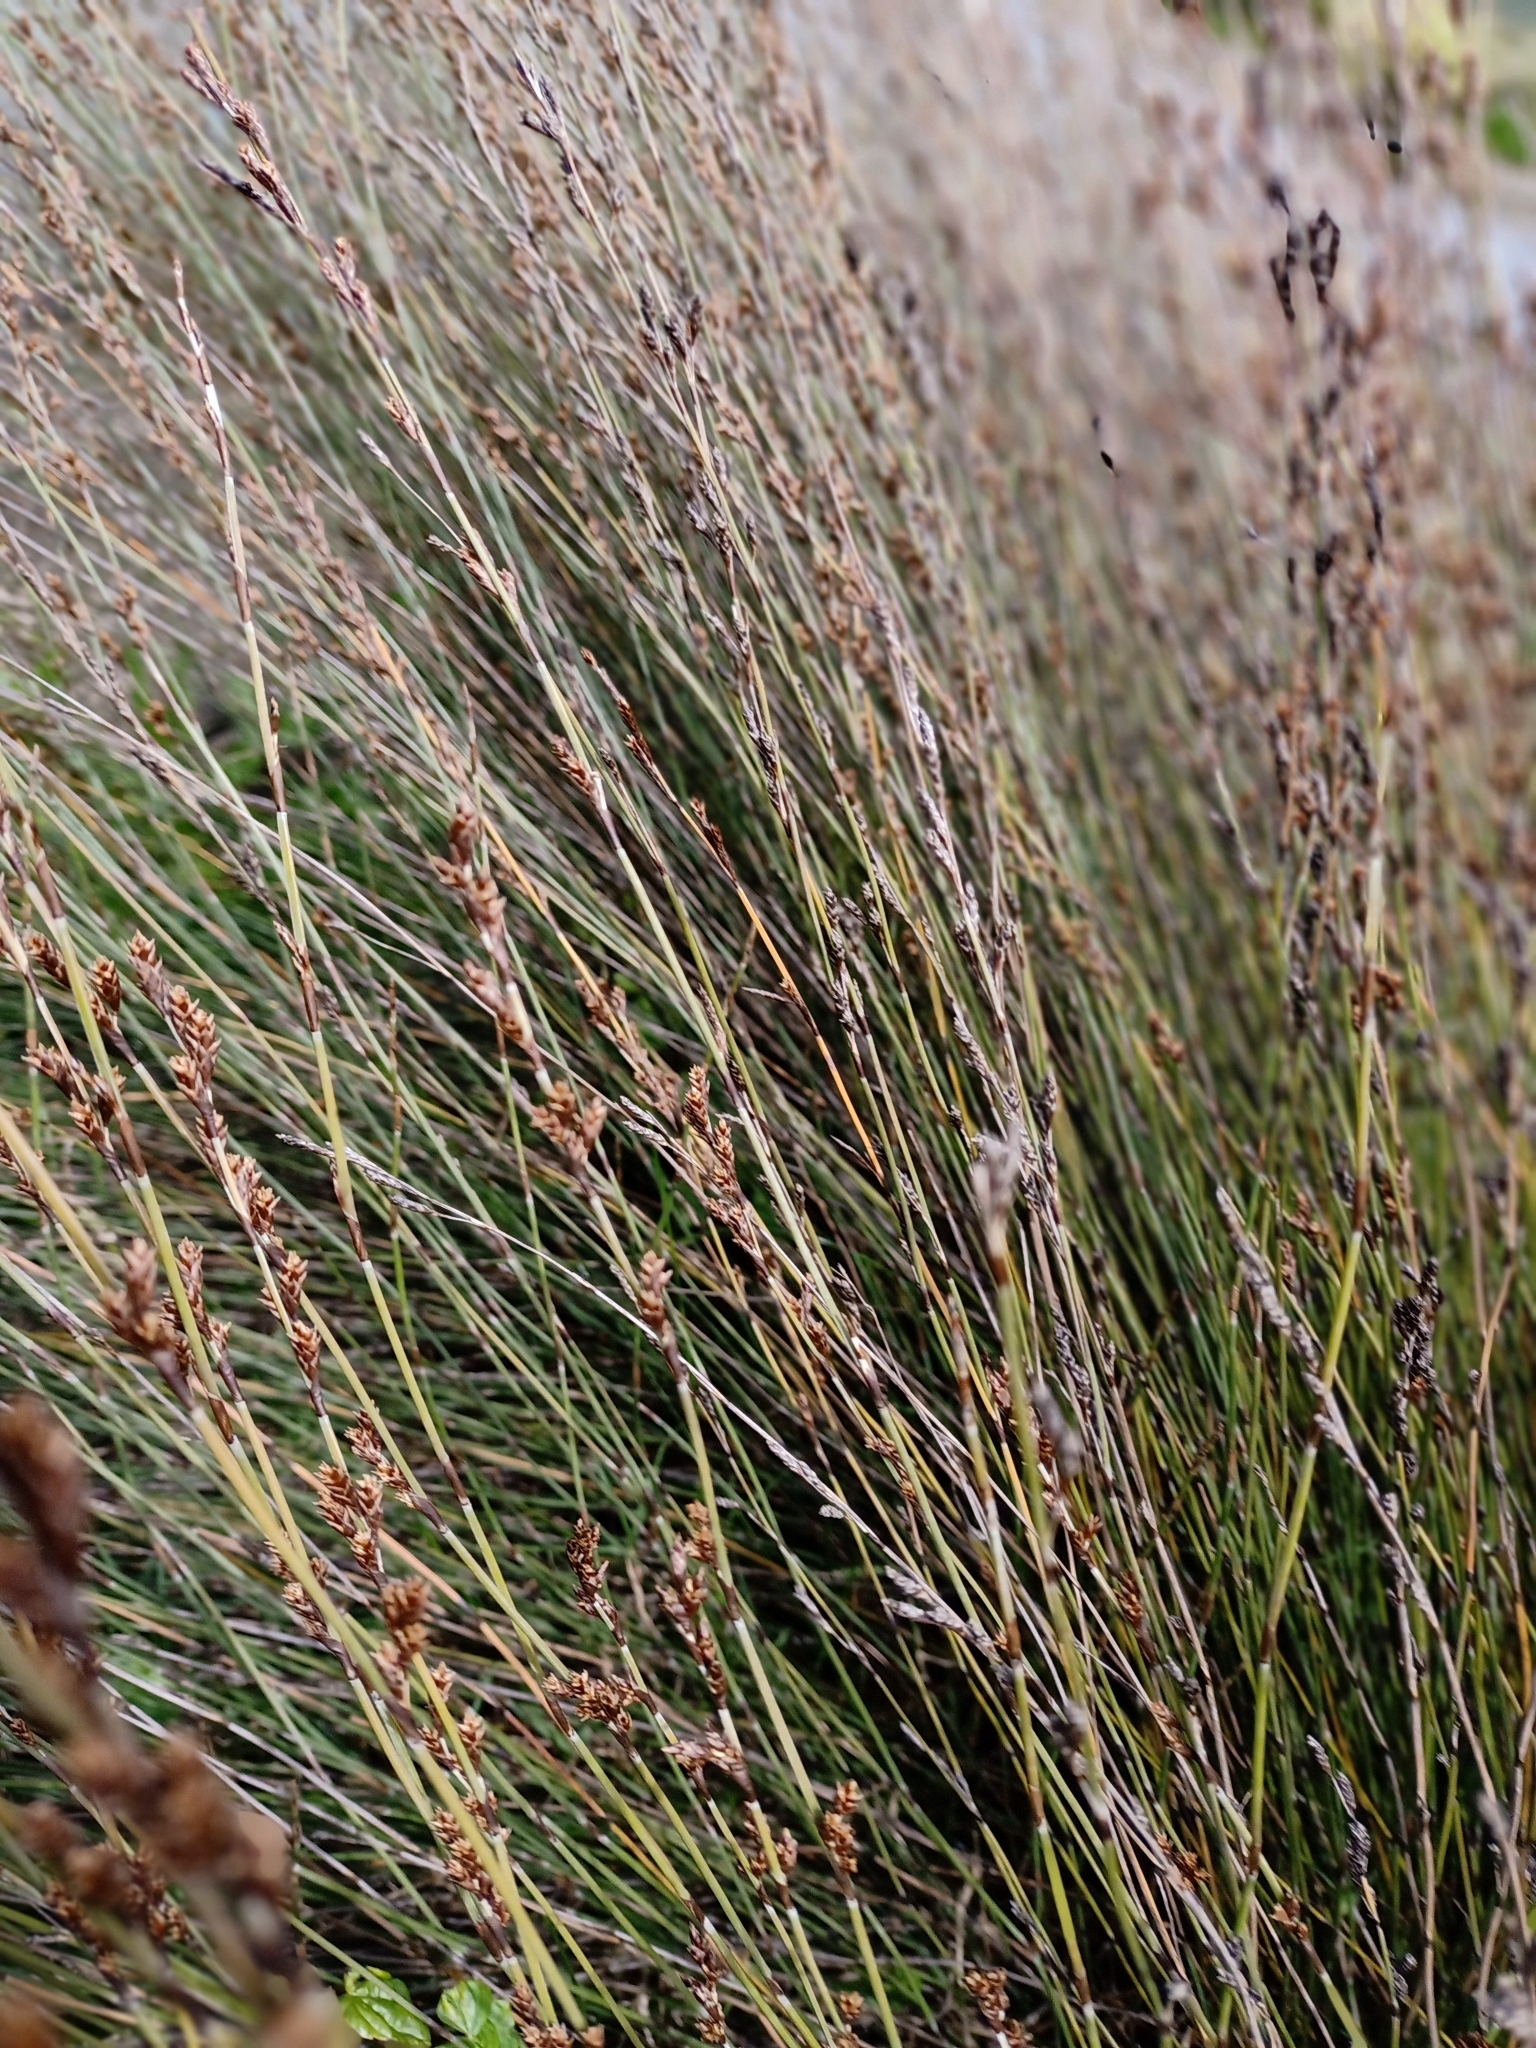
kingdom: Plantae
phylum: Tracheophyta
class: Liliopsida
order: Poales
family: Restionaceae
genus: Apodasmia
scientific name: Apodasmia similis
